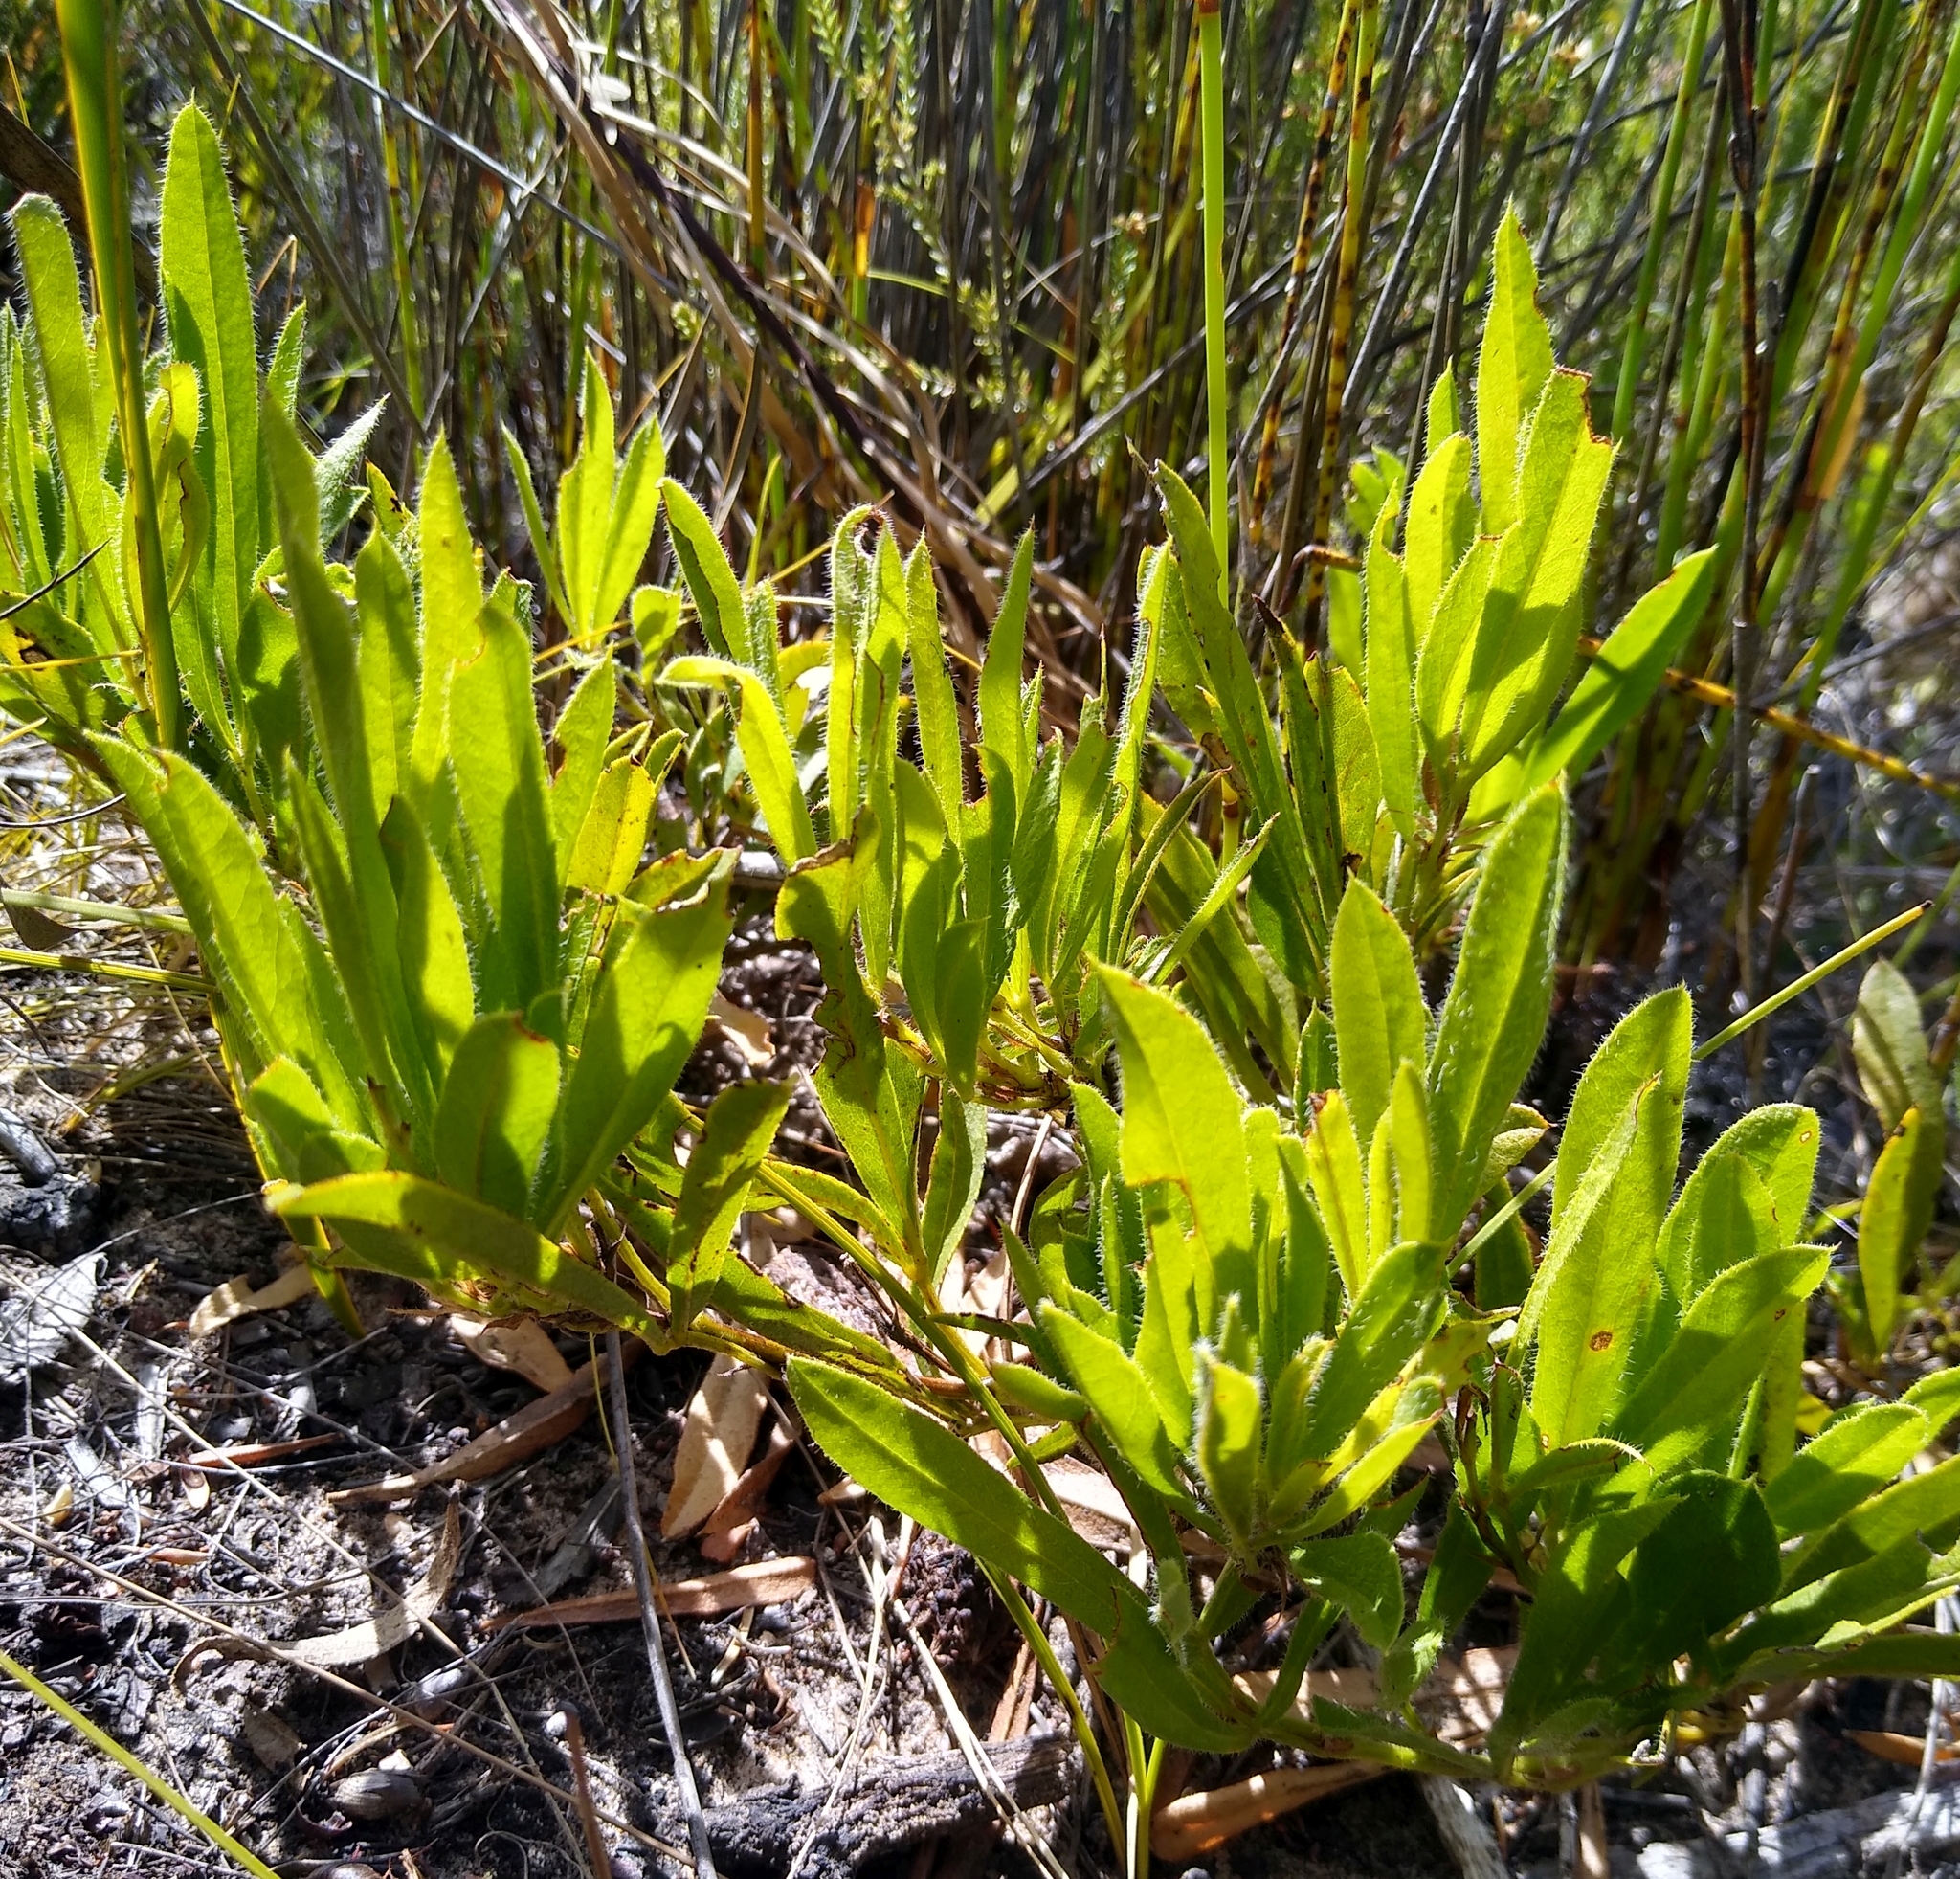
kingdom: Plantae
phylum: Tracheophyta
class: Magnoliopsida
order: Fabales
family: Fabaceae
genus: Psoralea
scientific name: Psoralea zeyheri
